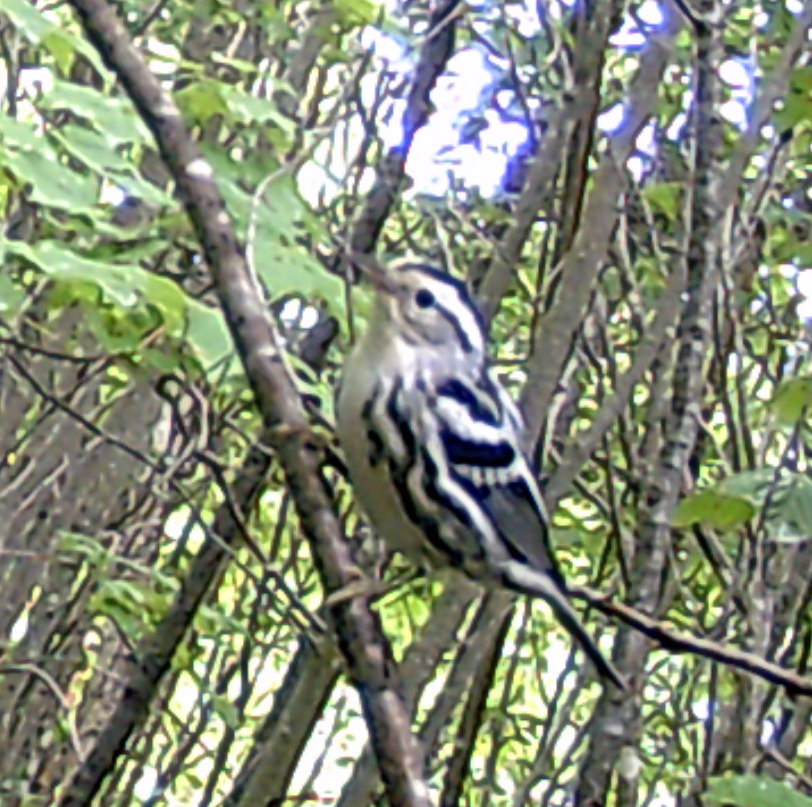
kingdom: Animalia
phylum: Chordata
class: Aves
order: Passeriformes
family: Parulidae
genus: Mniotilta
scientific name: Mniotilta varia
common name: Black-and-white warbler
